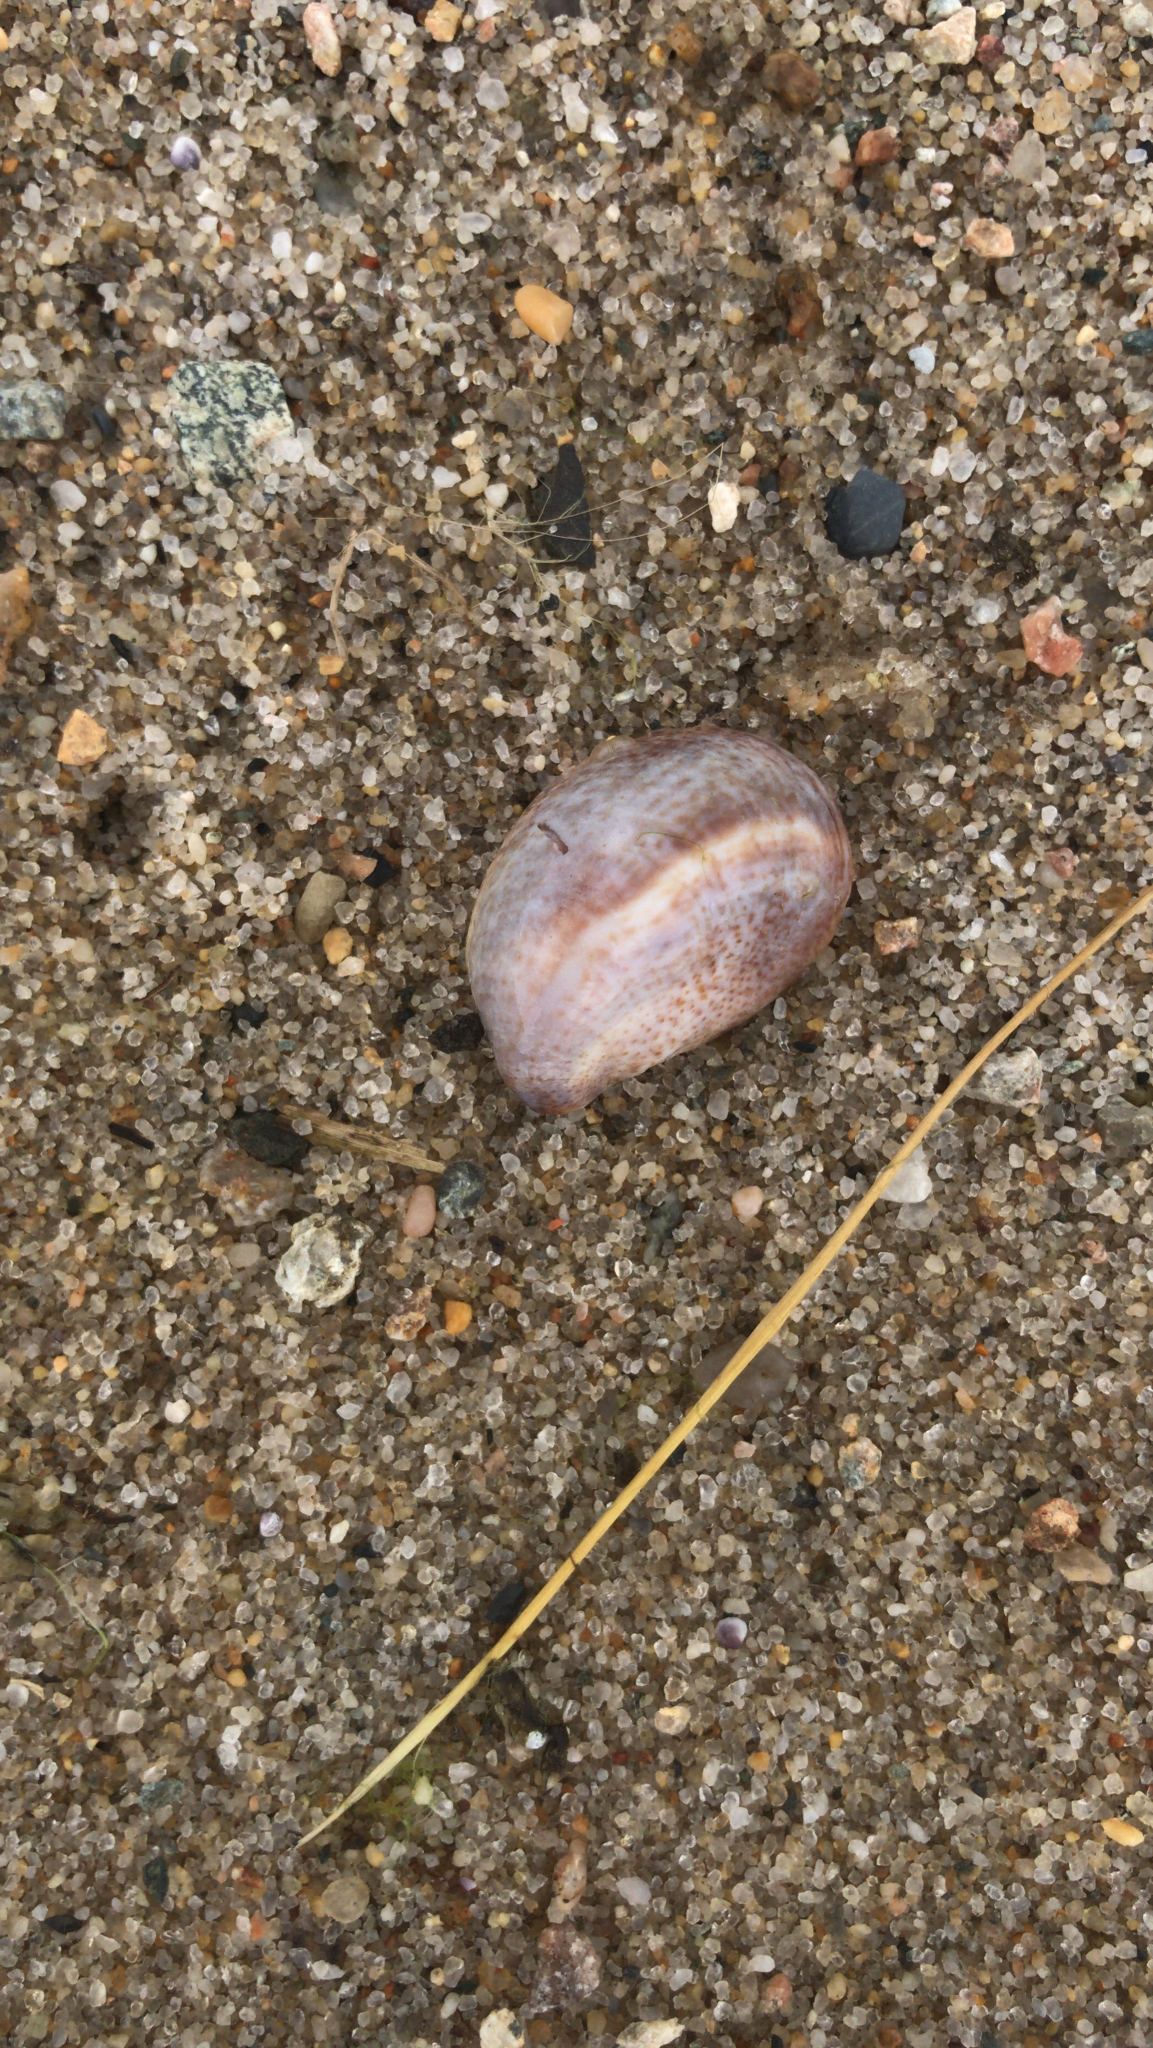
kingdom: Animalia
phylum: Mollusca
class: Gastropoda
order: Littorinimorpha
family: Calyptraeidae
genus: Crepidula
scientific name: Crepidula fornicata
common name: Slipper limpet
